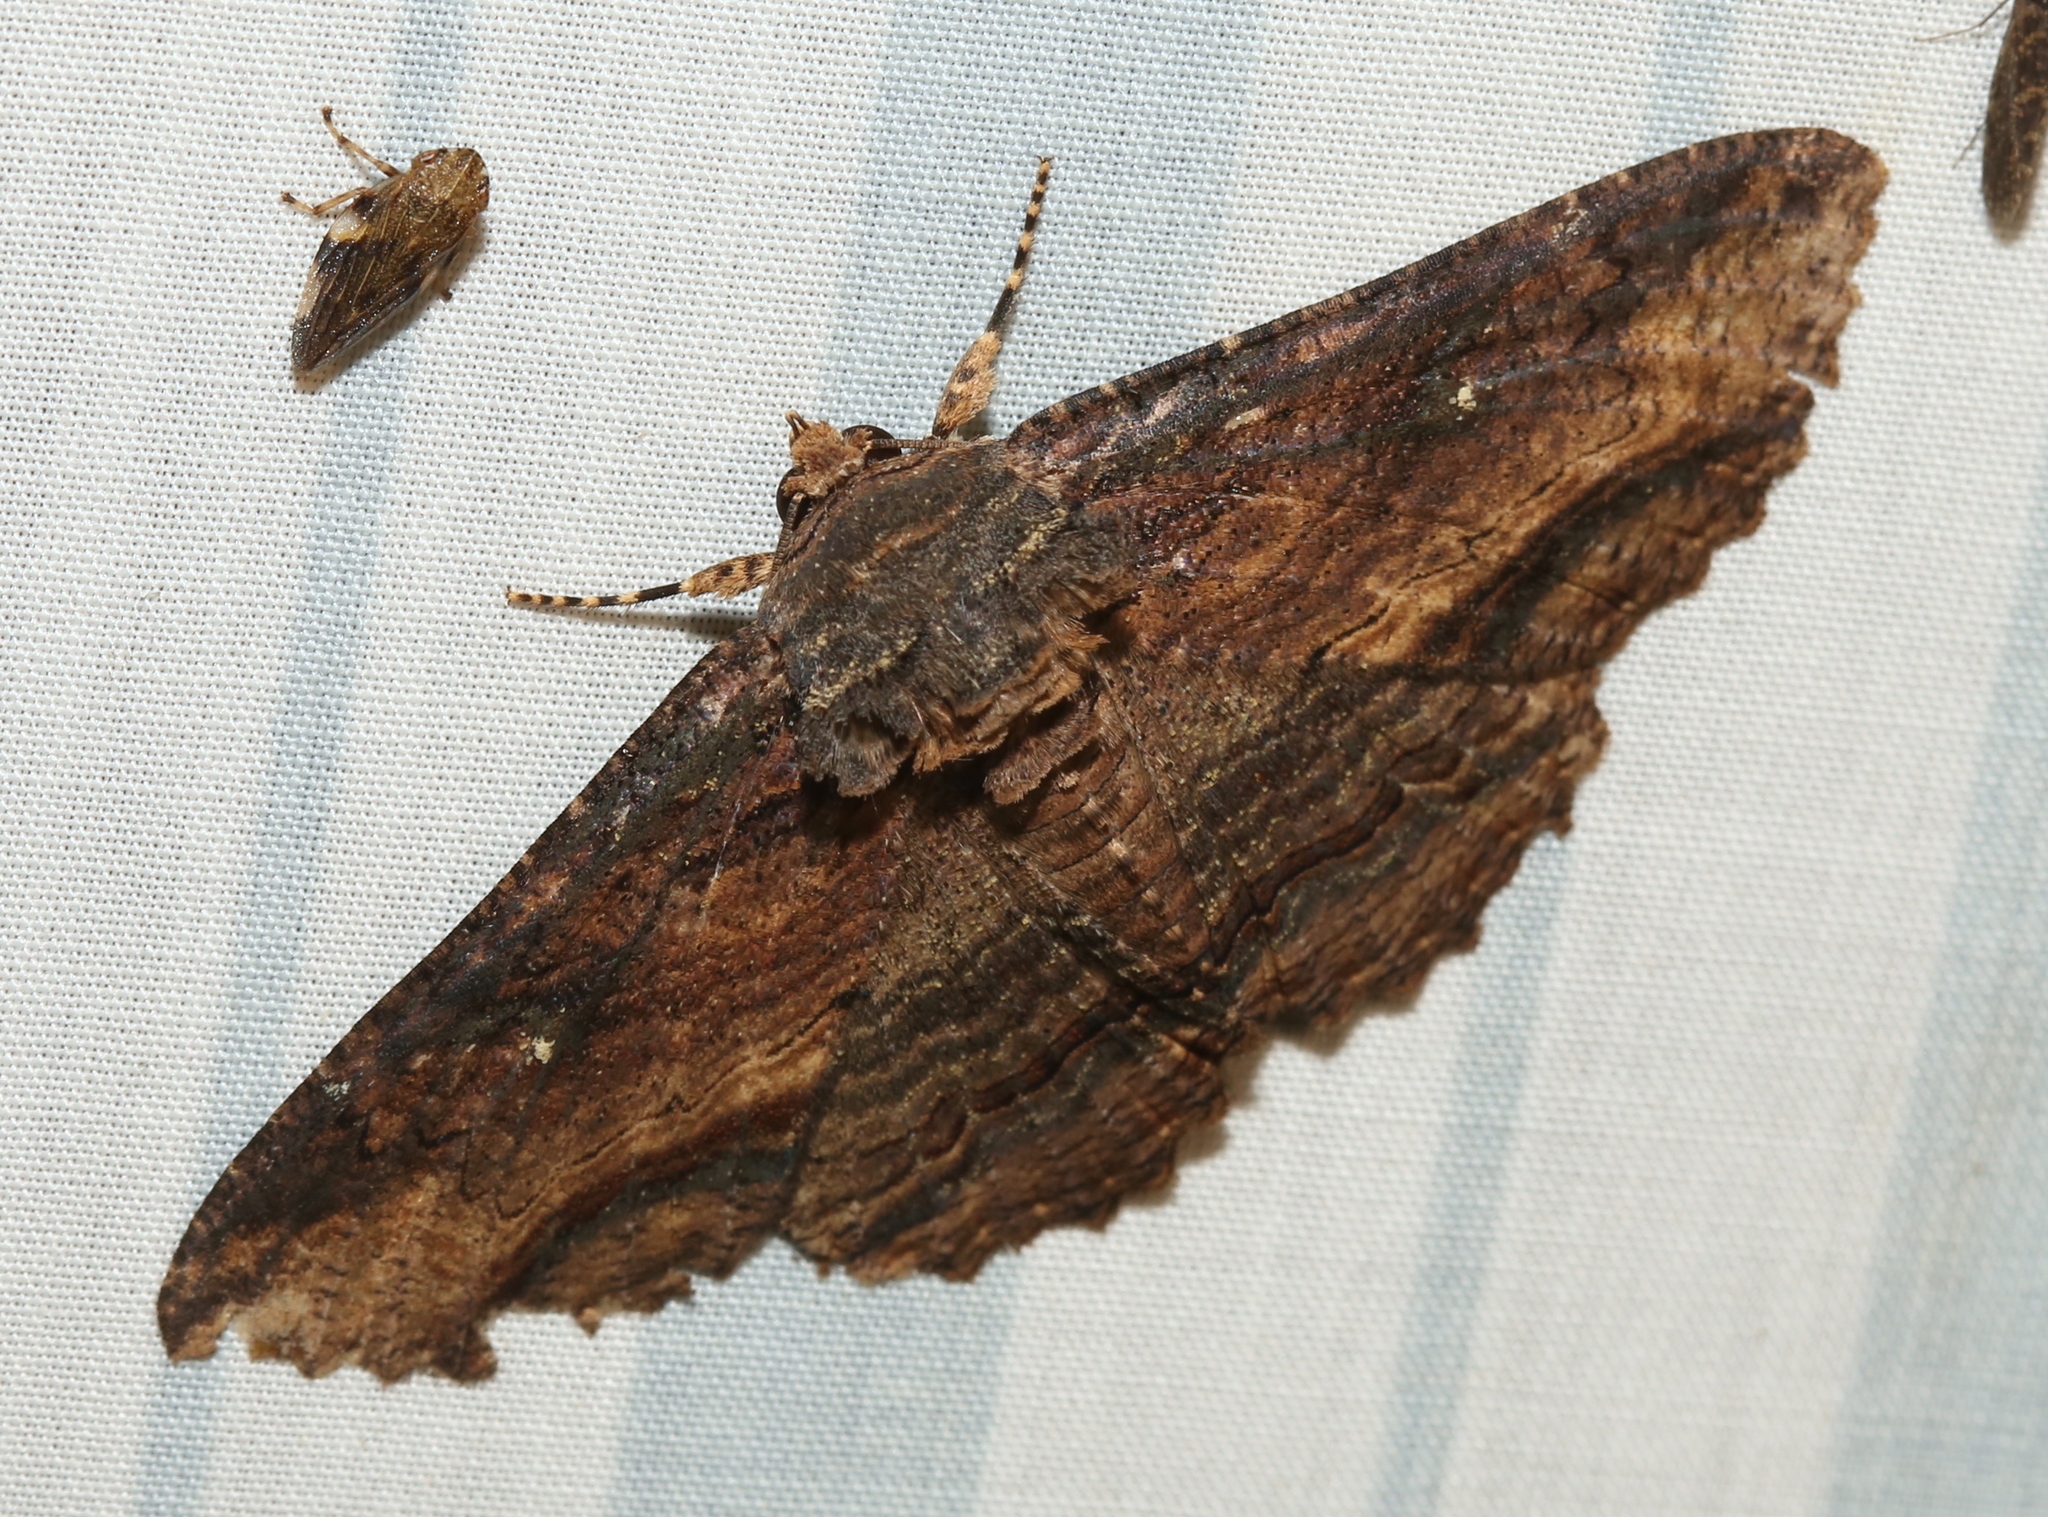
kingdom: Animalia
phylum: Arthropoda
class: Insecta
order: Lepidoptera
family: Erebidae
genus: Zale
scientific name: Zale lunata
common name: Lunate zale moth
